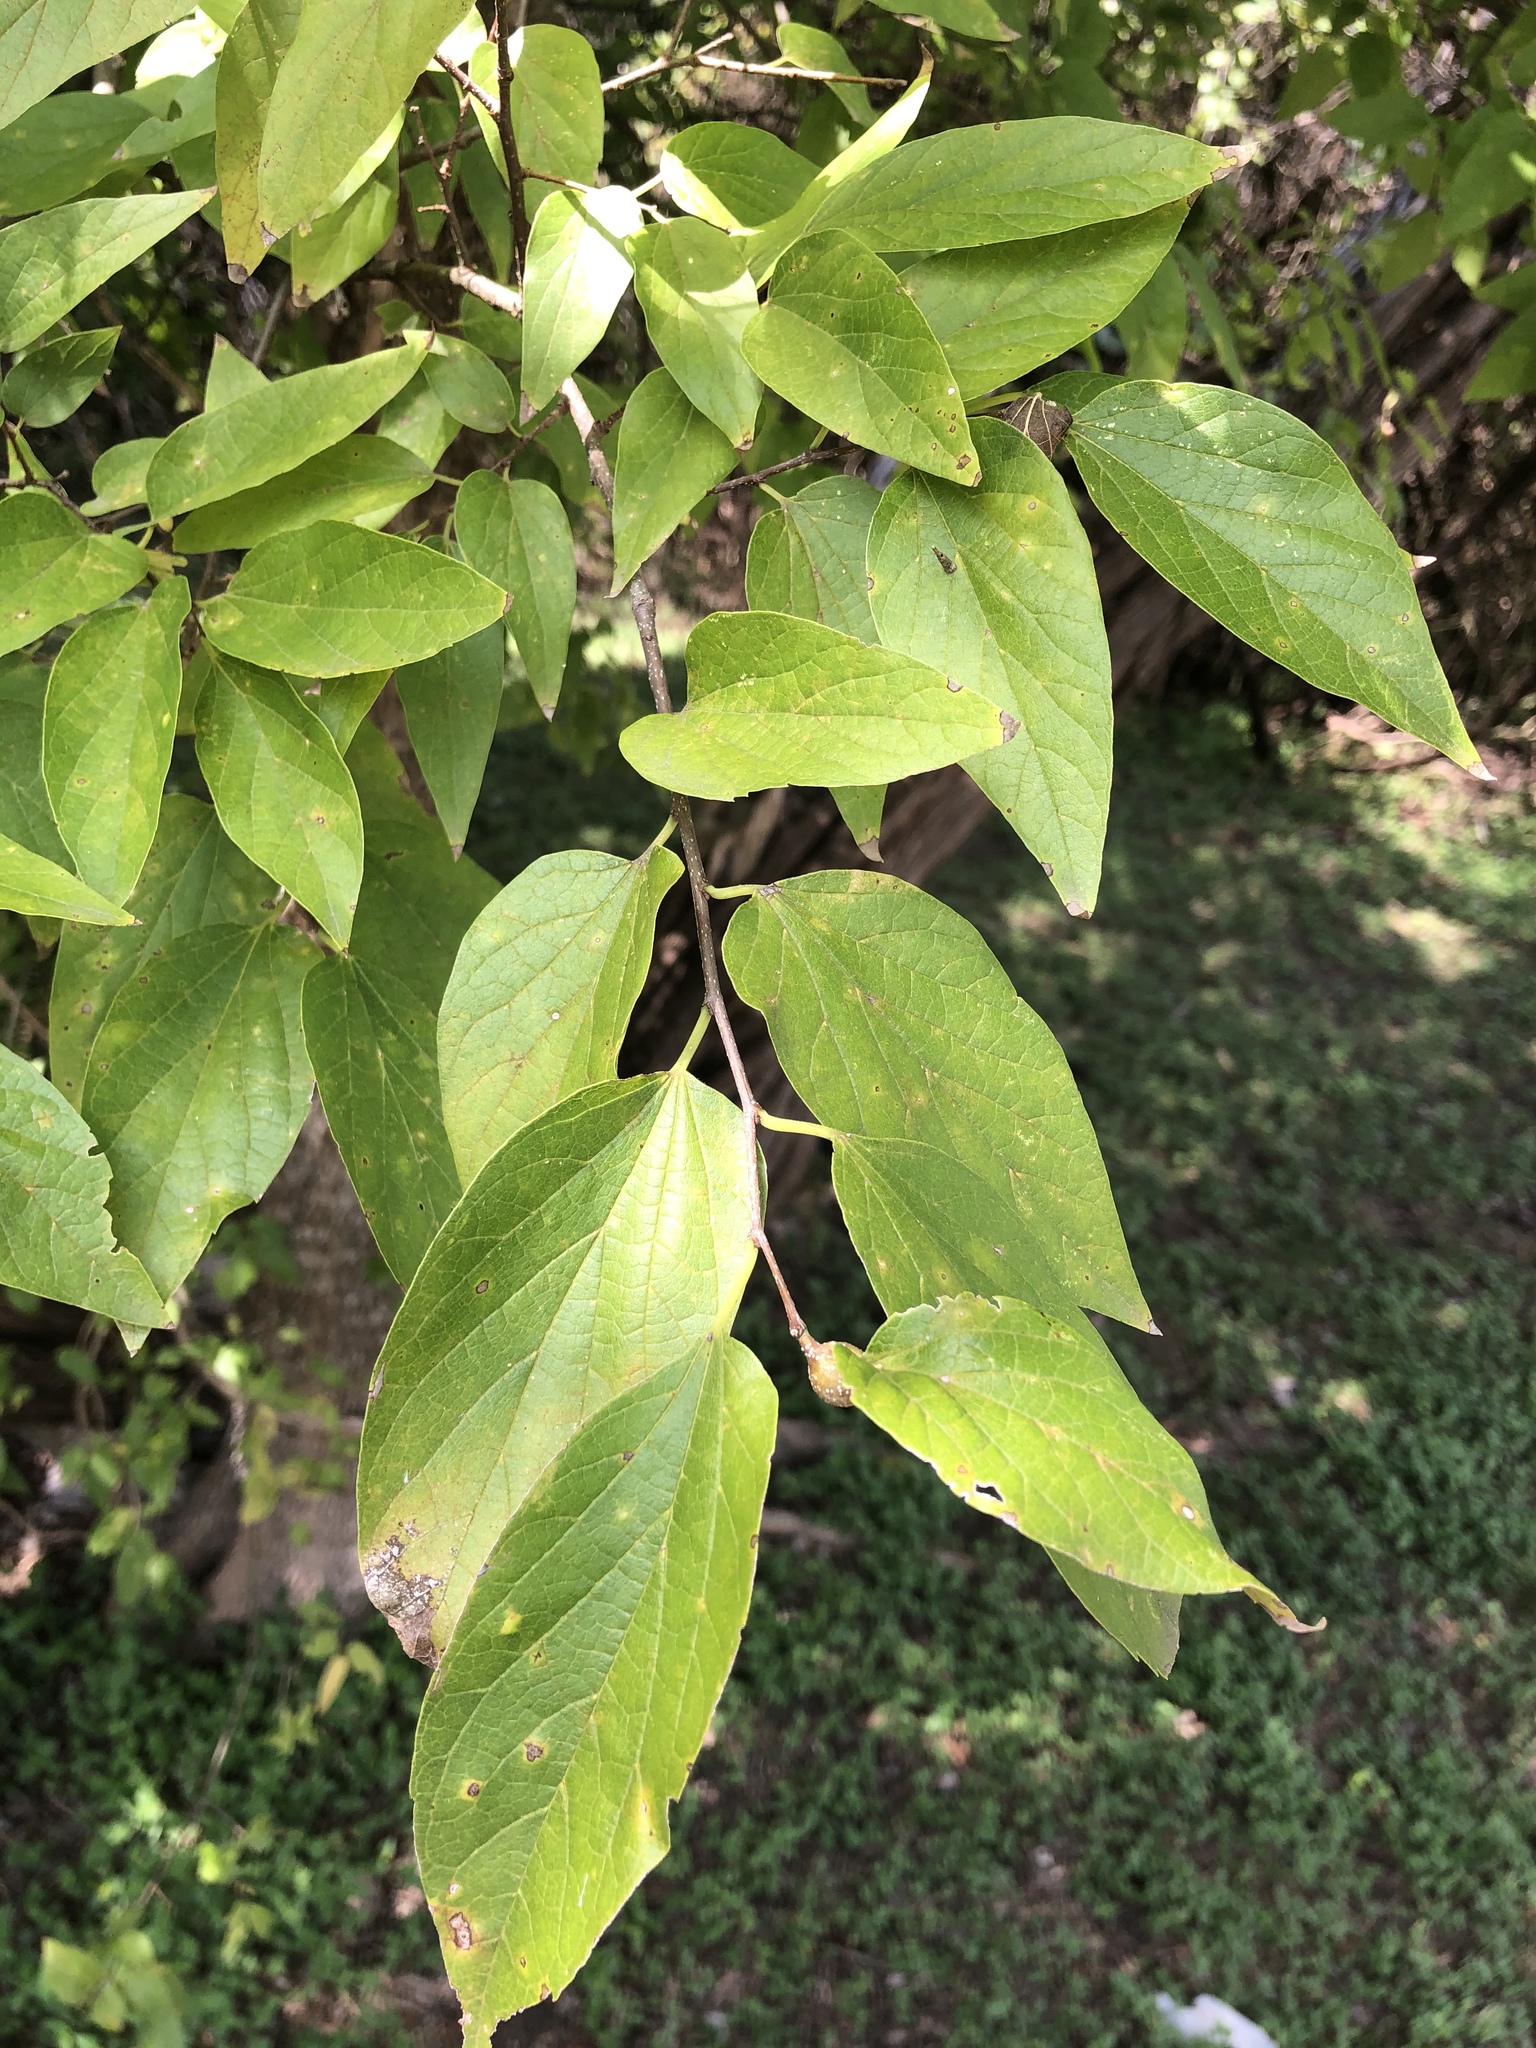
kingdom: Plantae
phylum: Tracheophyta
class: Magnoliopsida
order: Rosales
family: Cannabaceae
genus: Celtis
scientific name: Celtis laevigata
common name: Sugarberry
